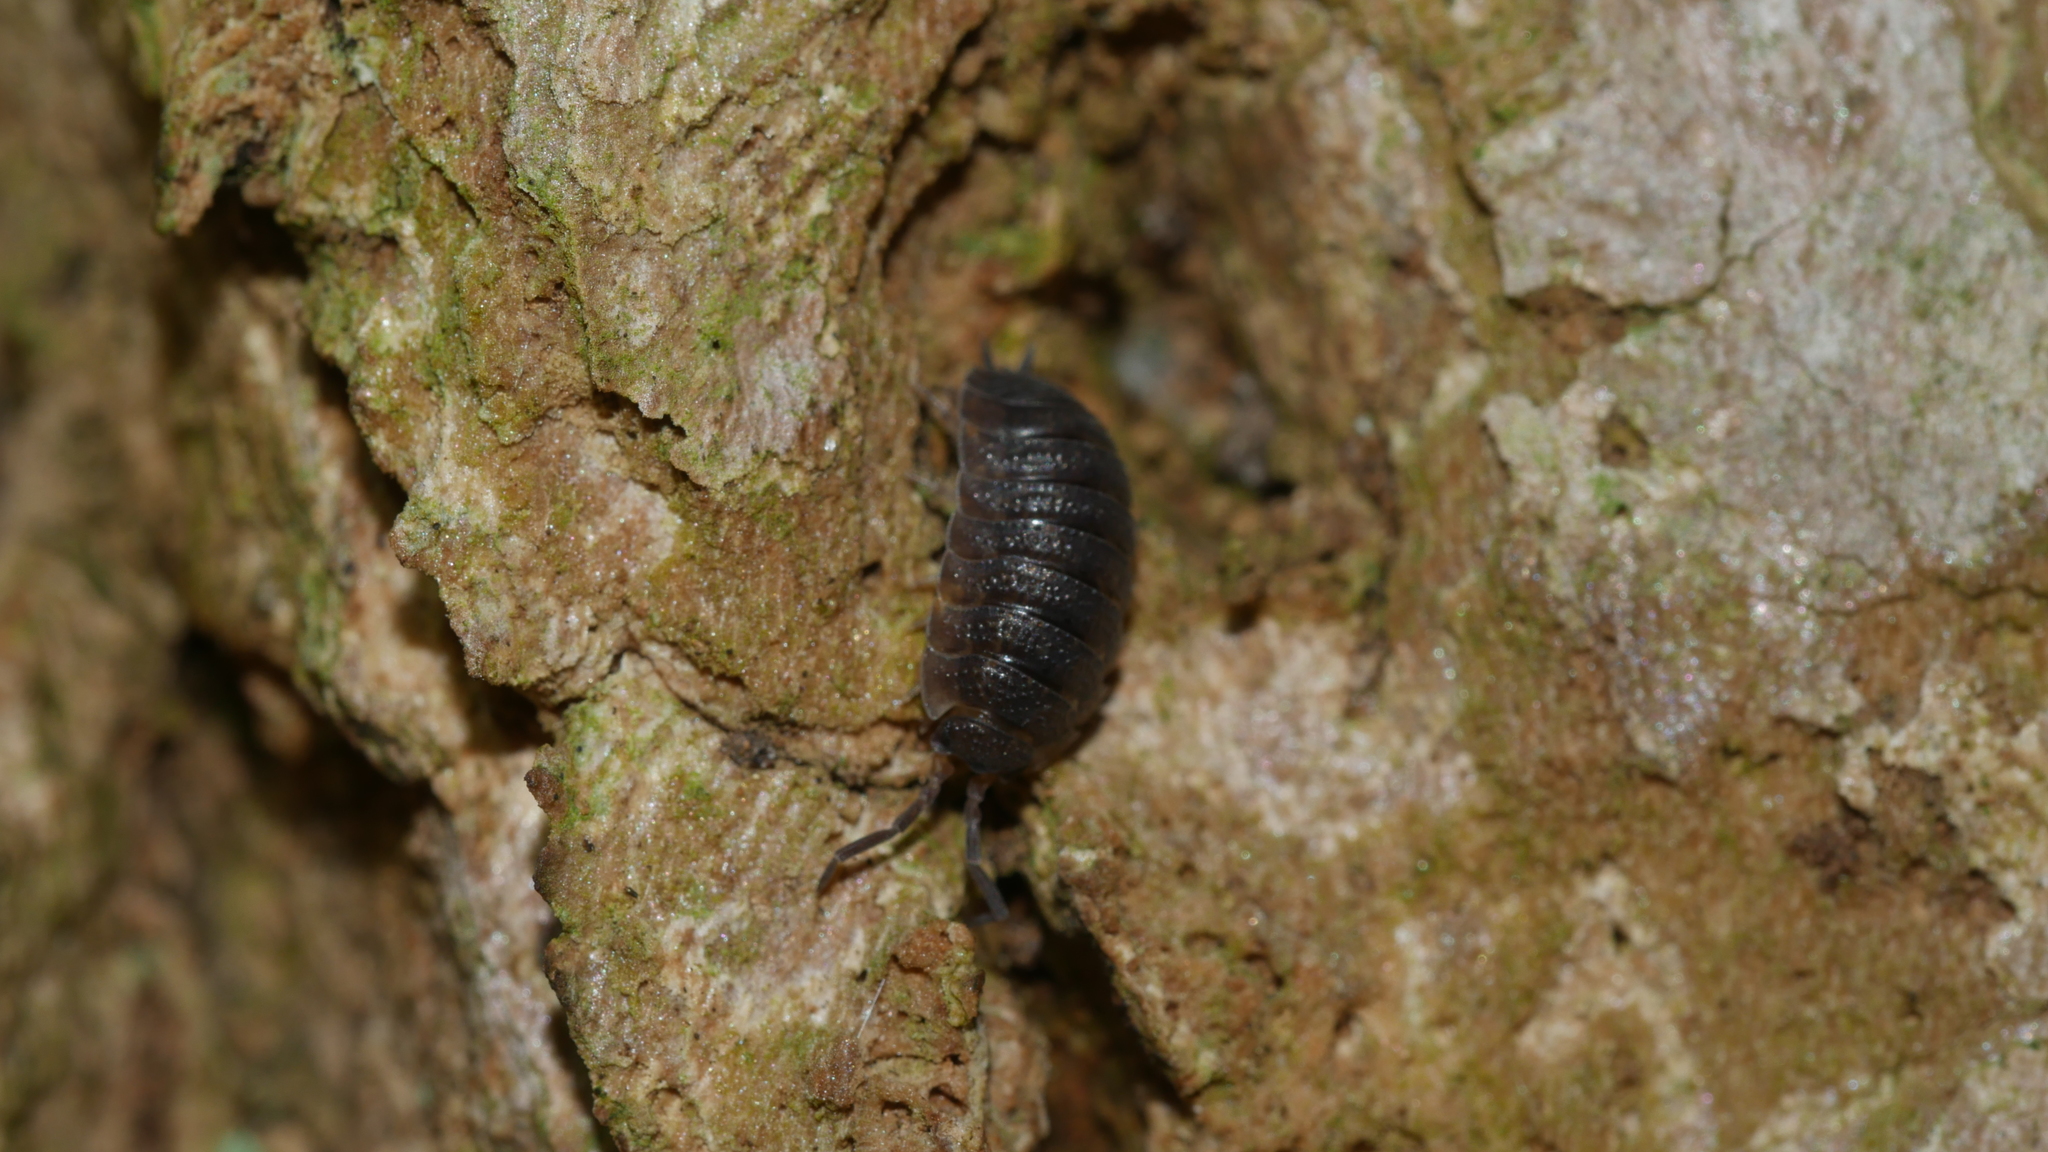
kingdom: Animalia
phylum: Arthropoda
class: Malacostraca
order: Isopoda
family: Porcellionidae
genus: Porcellio
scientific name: Porcellio scaber
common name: Common rough woodlouse
